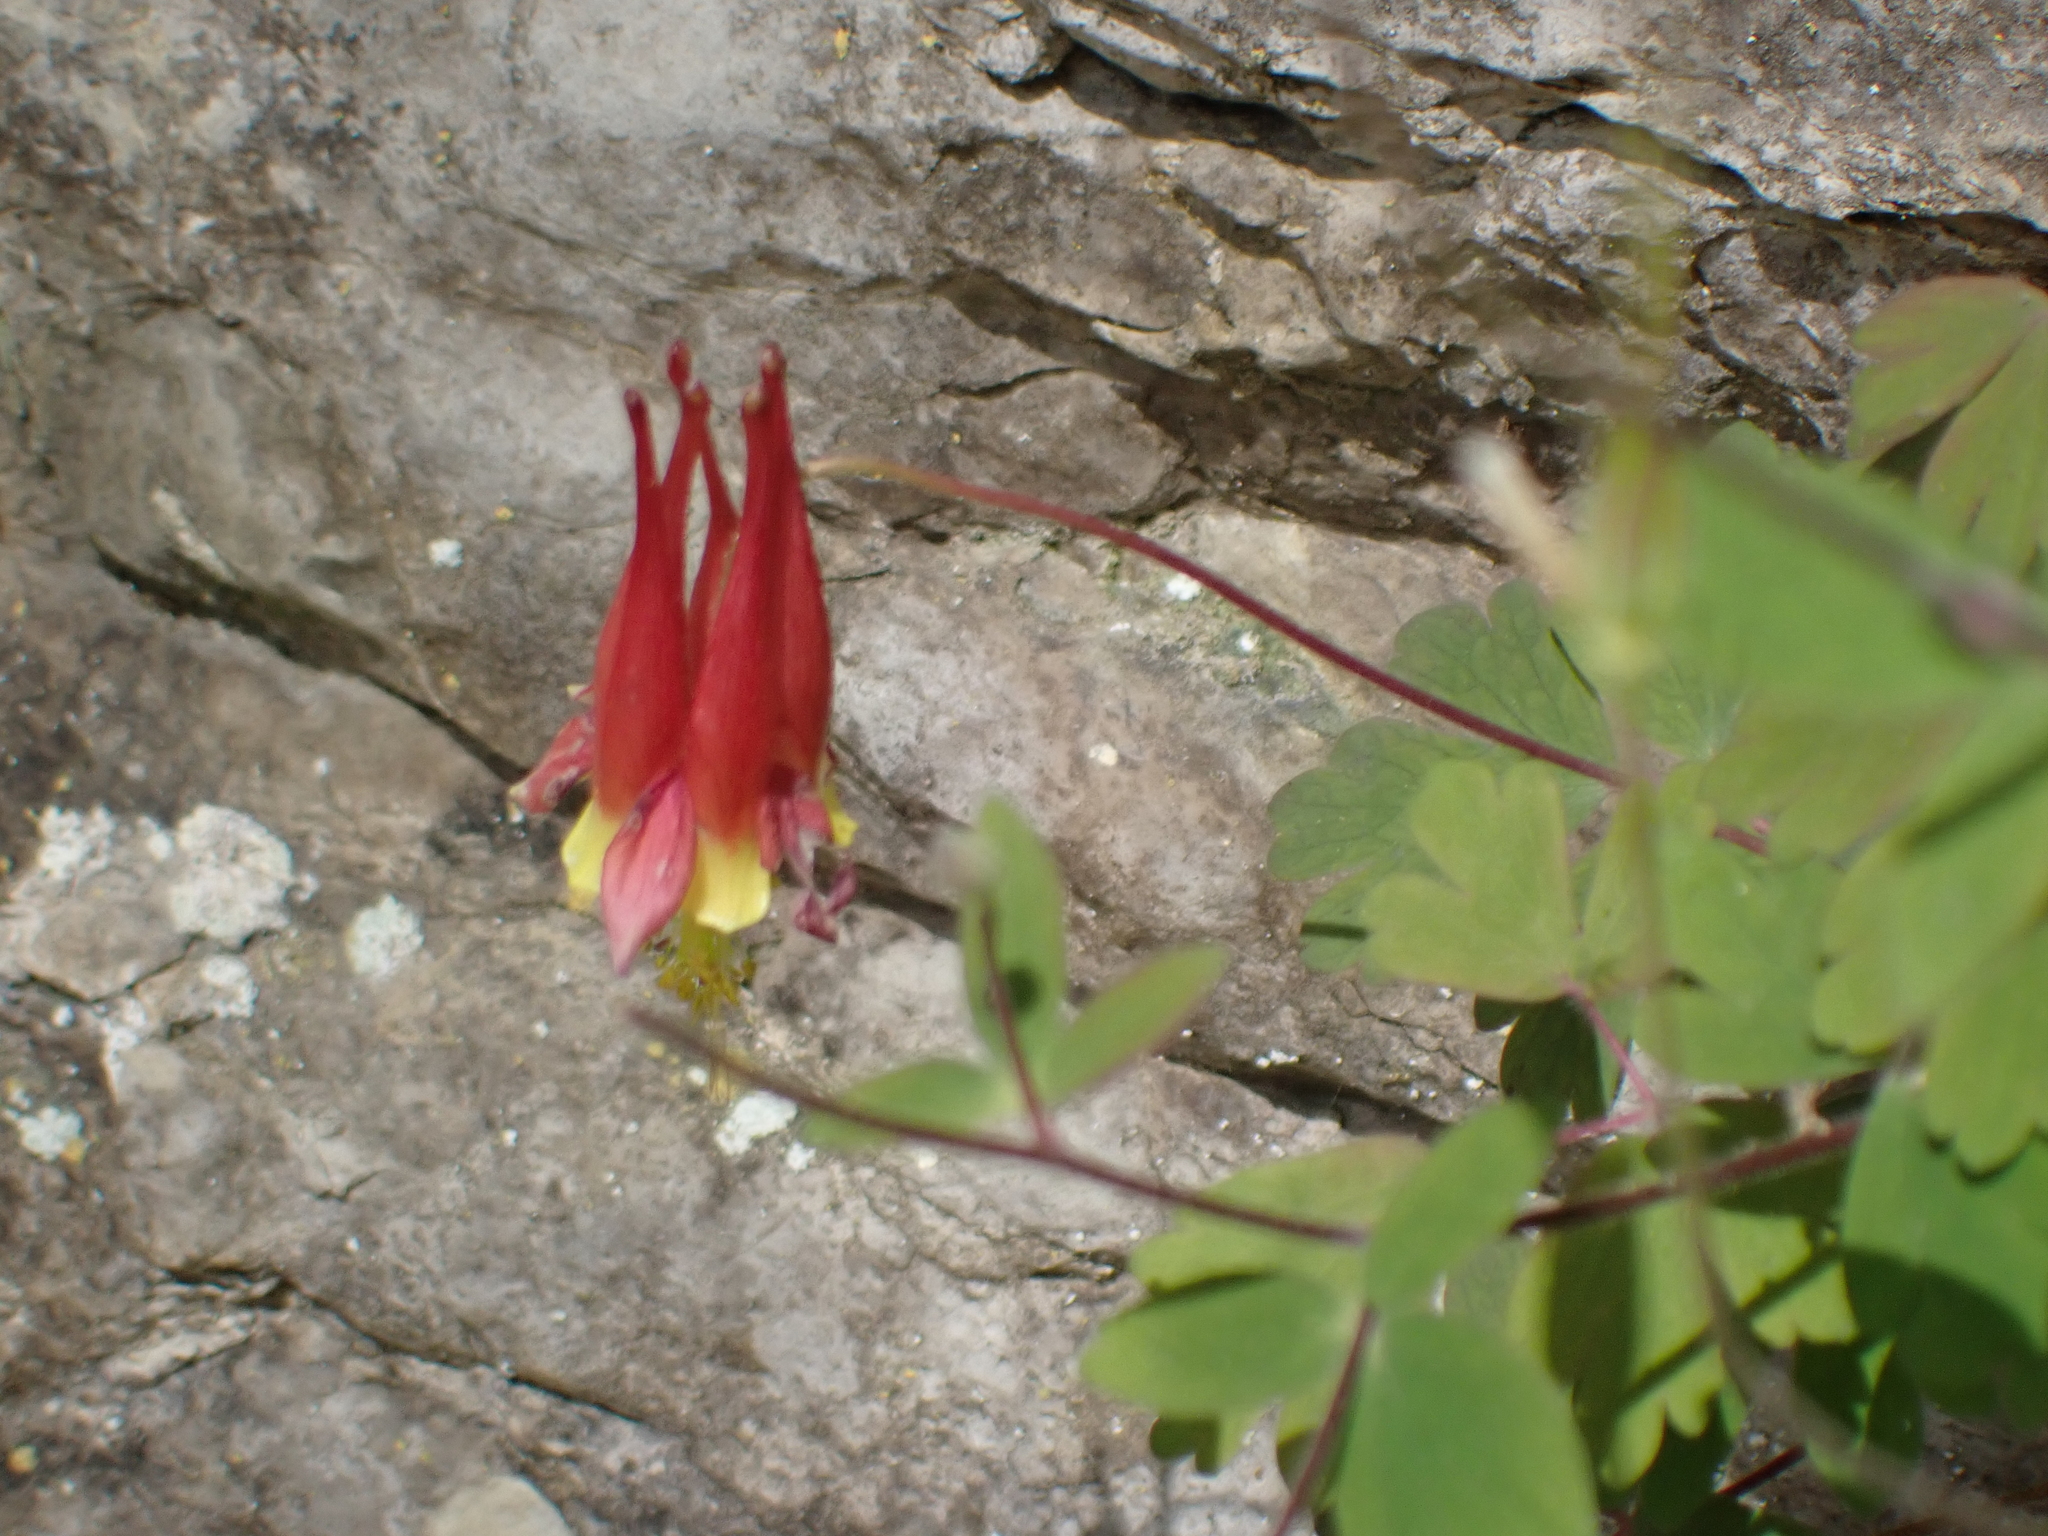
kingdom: Plantae
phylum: Tracheophyta
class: Magnoliopsida
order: Ranunculales
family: Ranunculaceae
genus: Aquilegia
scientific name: Aquilegia canadensis
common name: American columbine
